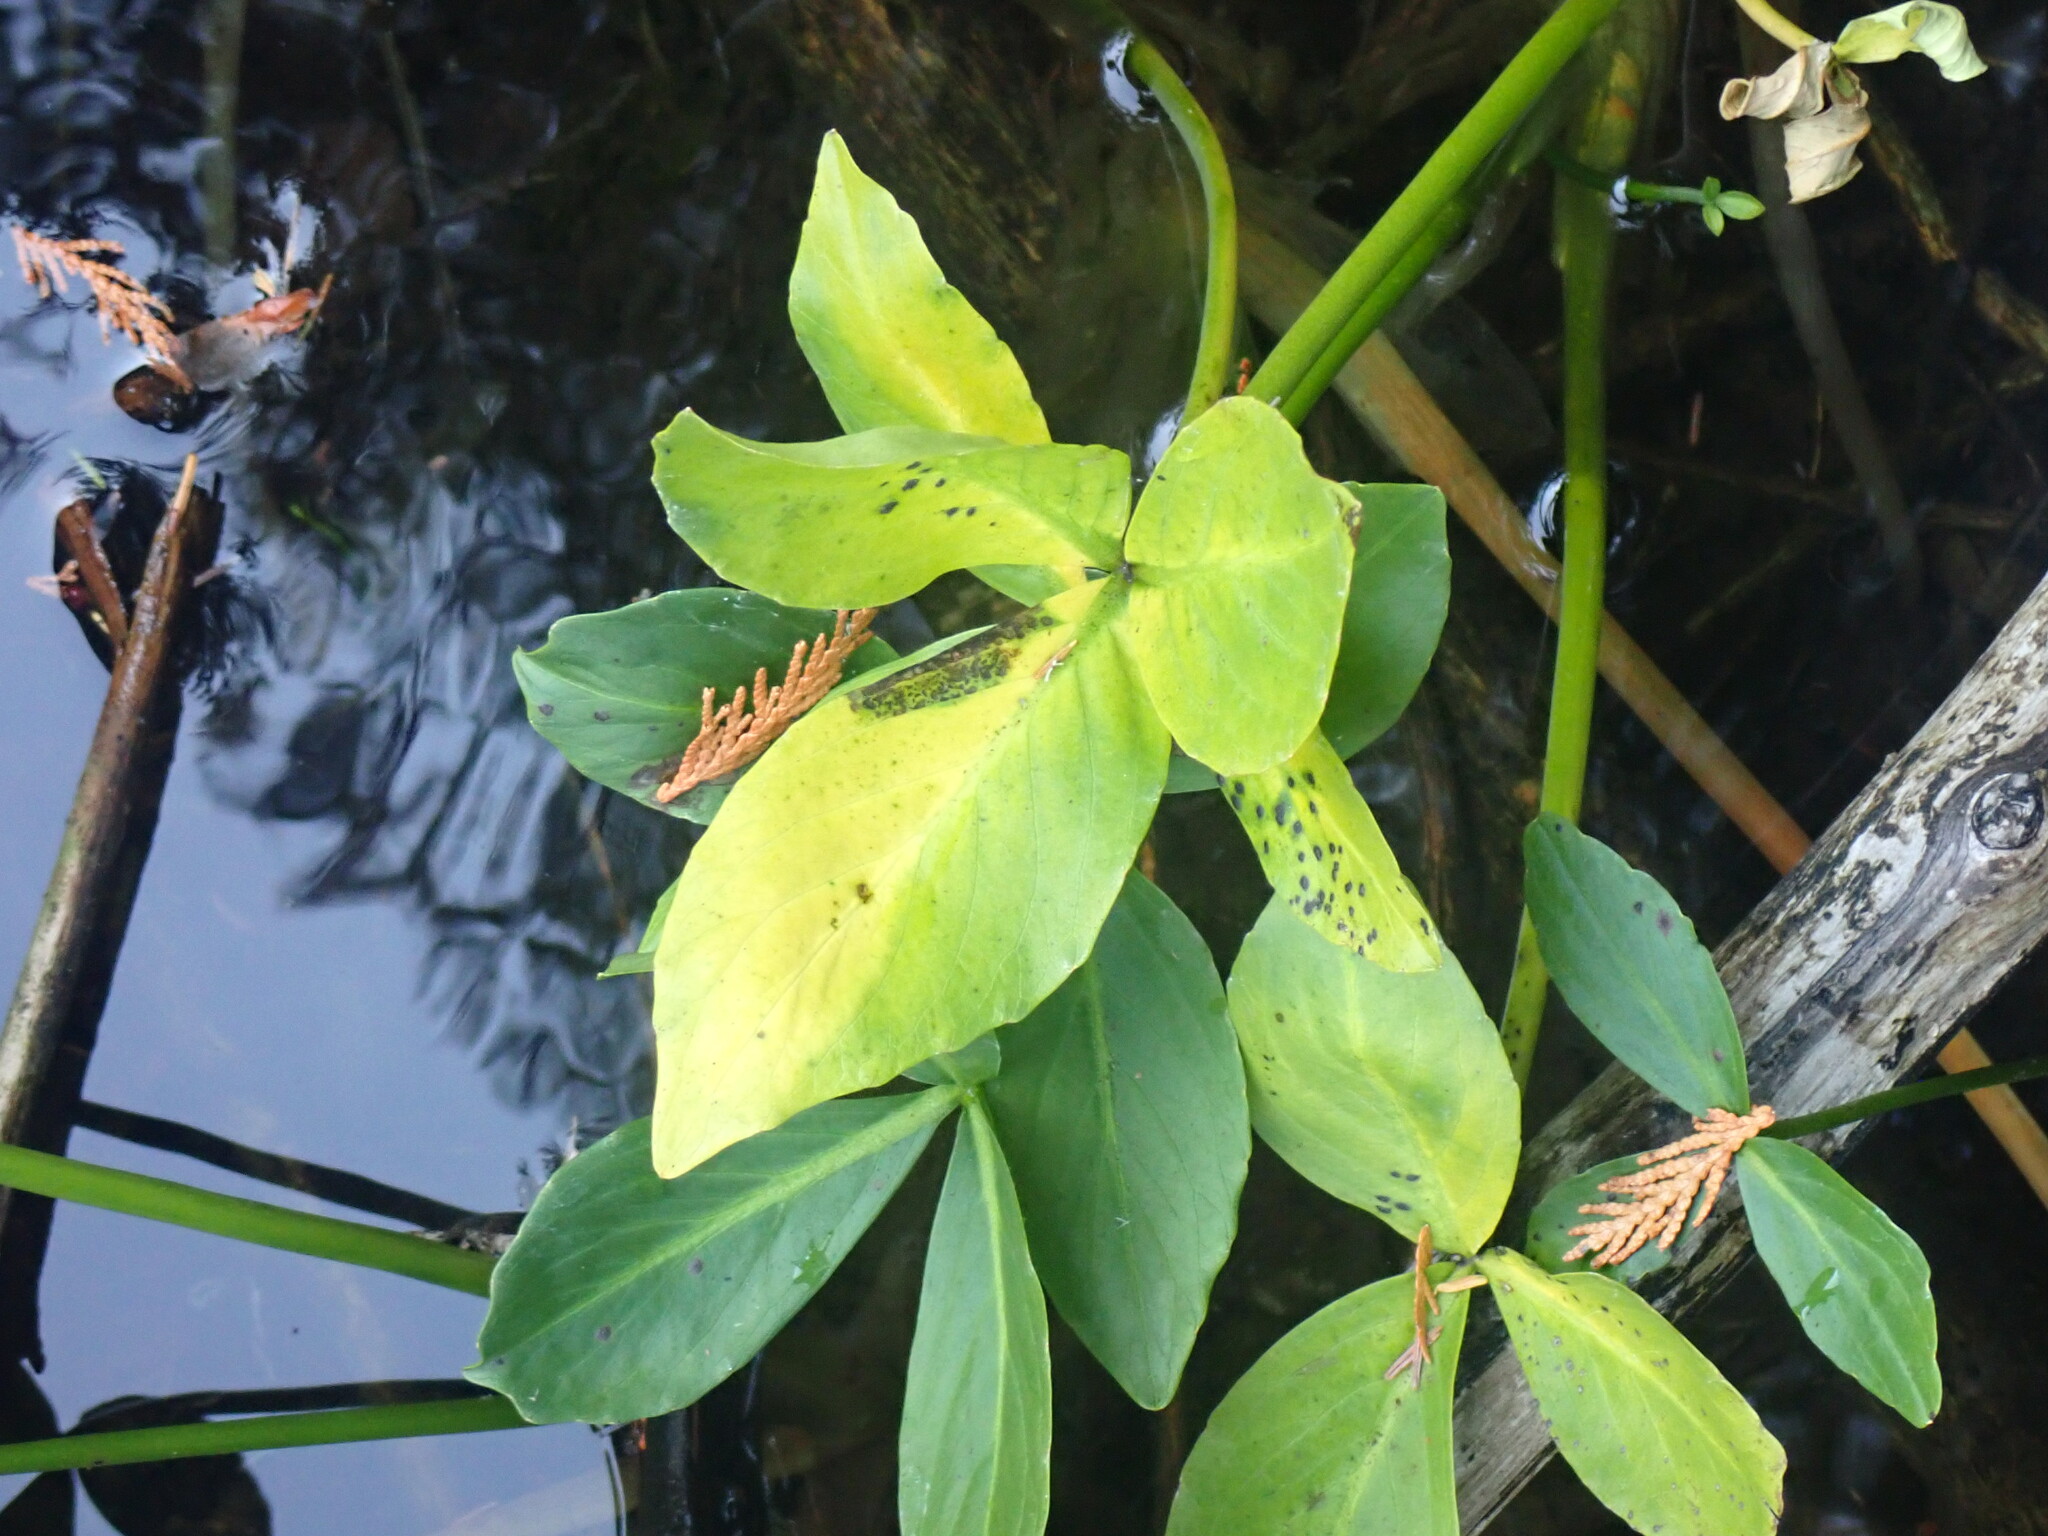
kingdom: Plantae
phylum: Tracheophyta
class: Magnoliopsida
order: Asterales
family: Menyanthaceae
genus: Menyanthes
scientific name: Menyanthes trifoliata
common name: Bogbean
